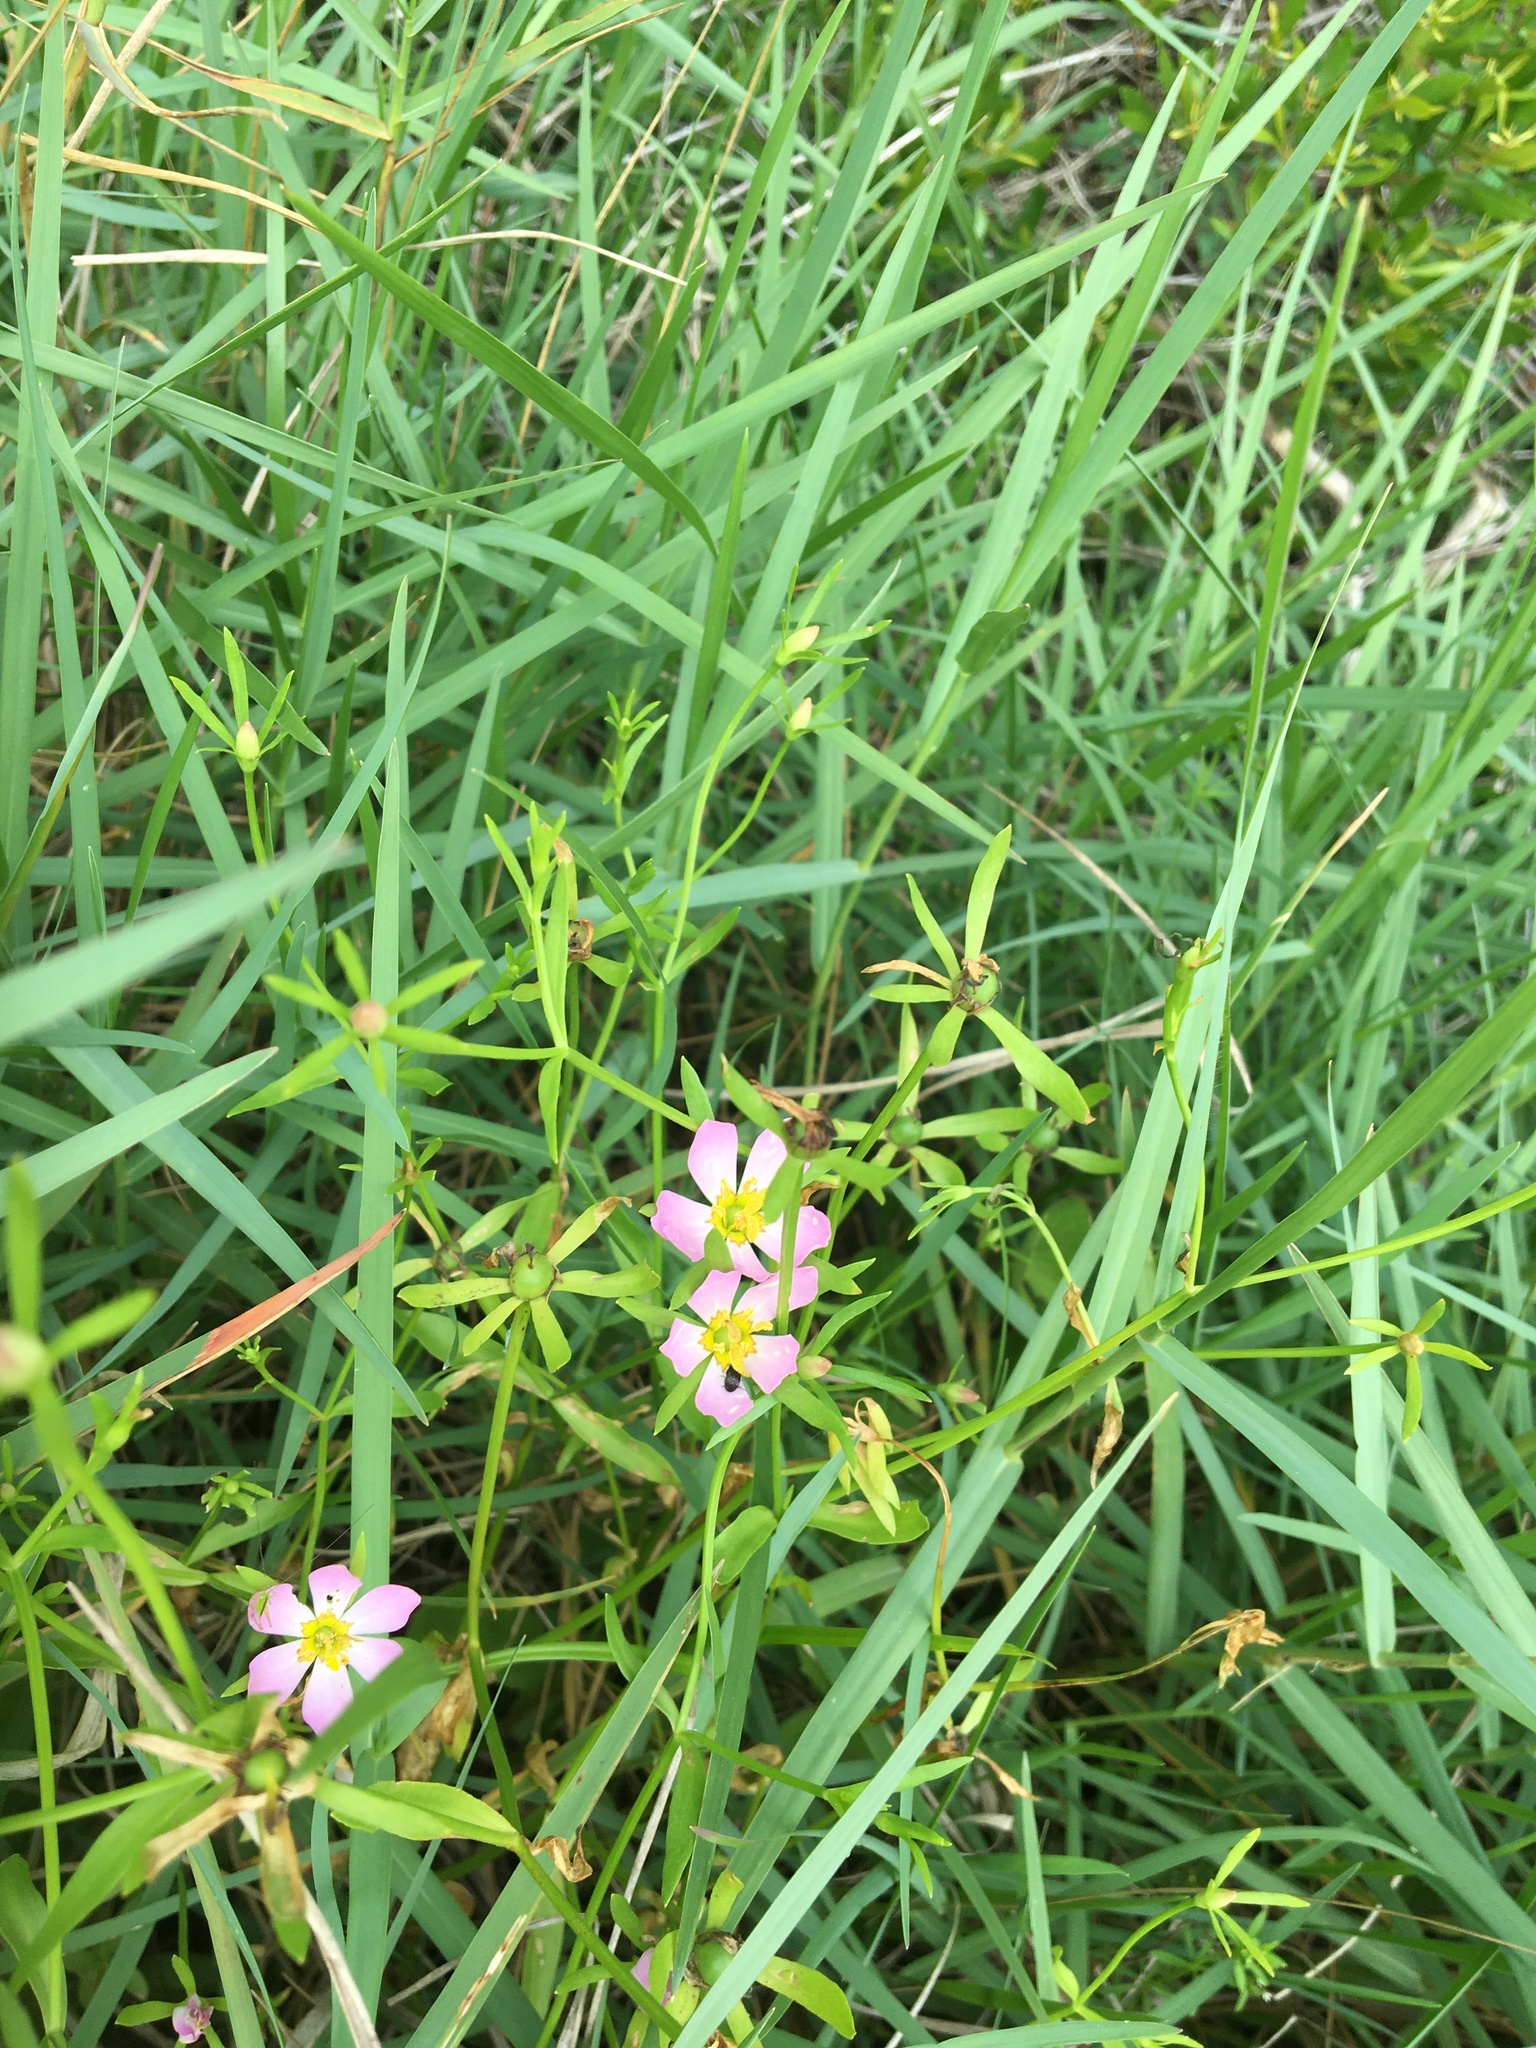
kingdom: Plantae
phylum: Tracheophyta
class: Magnoliopsida
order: Gentianales
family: Gentianaceae
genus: Sabatia
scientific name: Sabatia calycina
